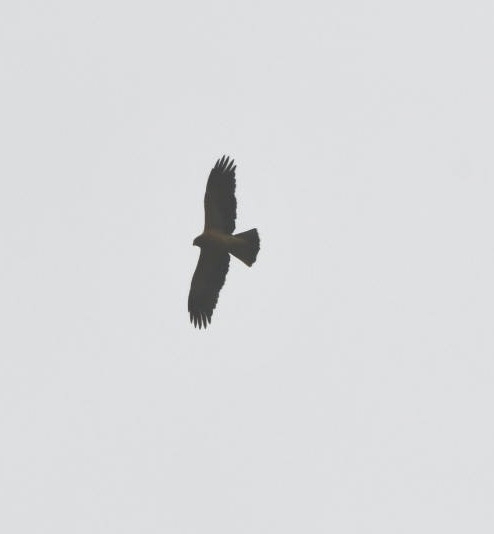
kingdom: Animalia
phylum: Chordata
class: Aves
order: Accipitriformes
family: Accipitridae
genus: Hieraaetus
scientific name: Hieraaetus pennatus
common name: Booted eagle
